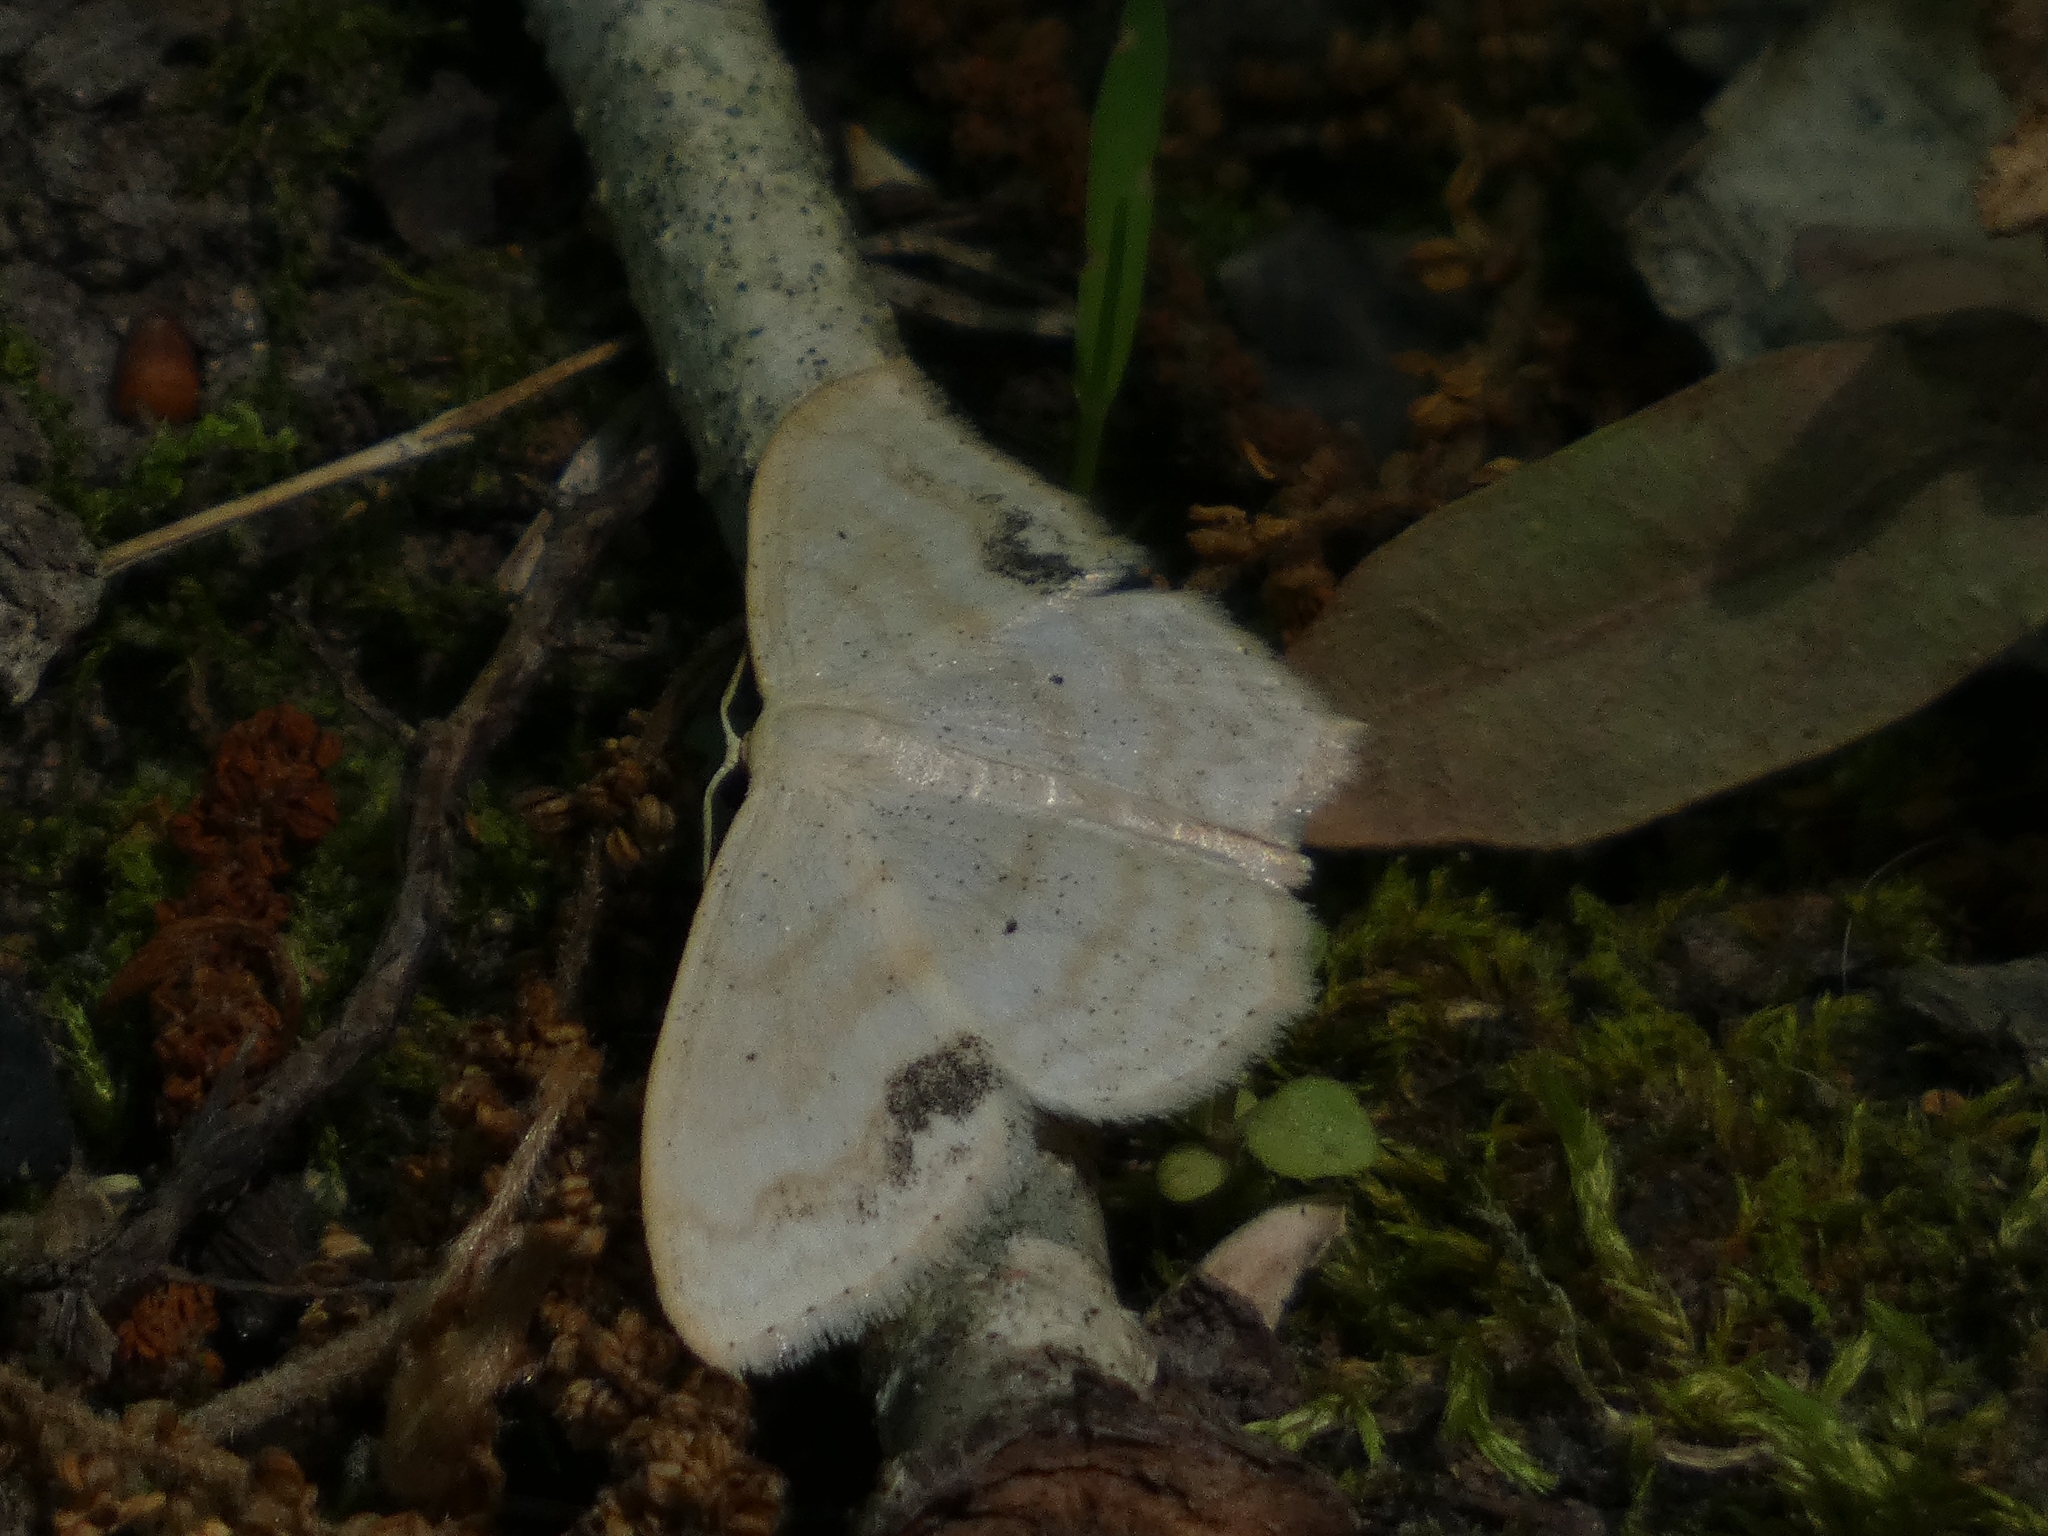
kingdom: Animalia
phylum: Arthropoda
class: Insecta
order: Lepidoptera
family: Geometridae
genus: Scopula
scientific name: Scopula limboundata
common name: Large lace border
